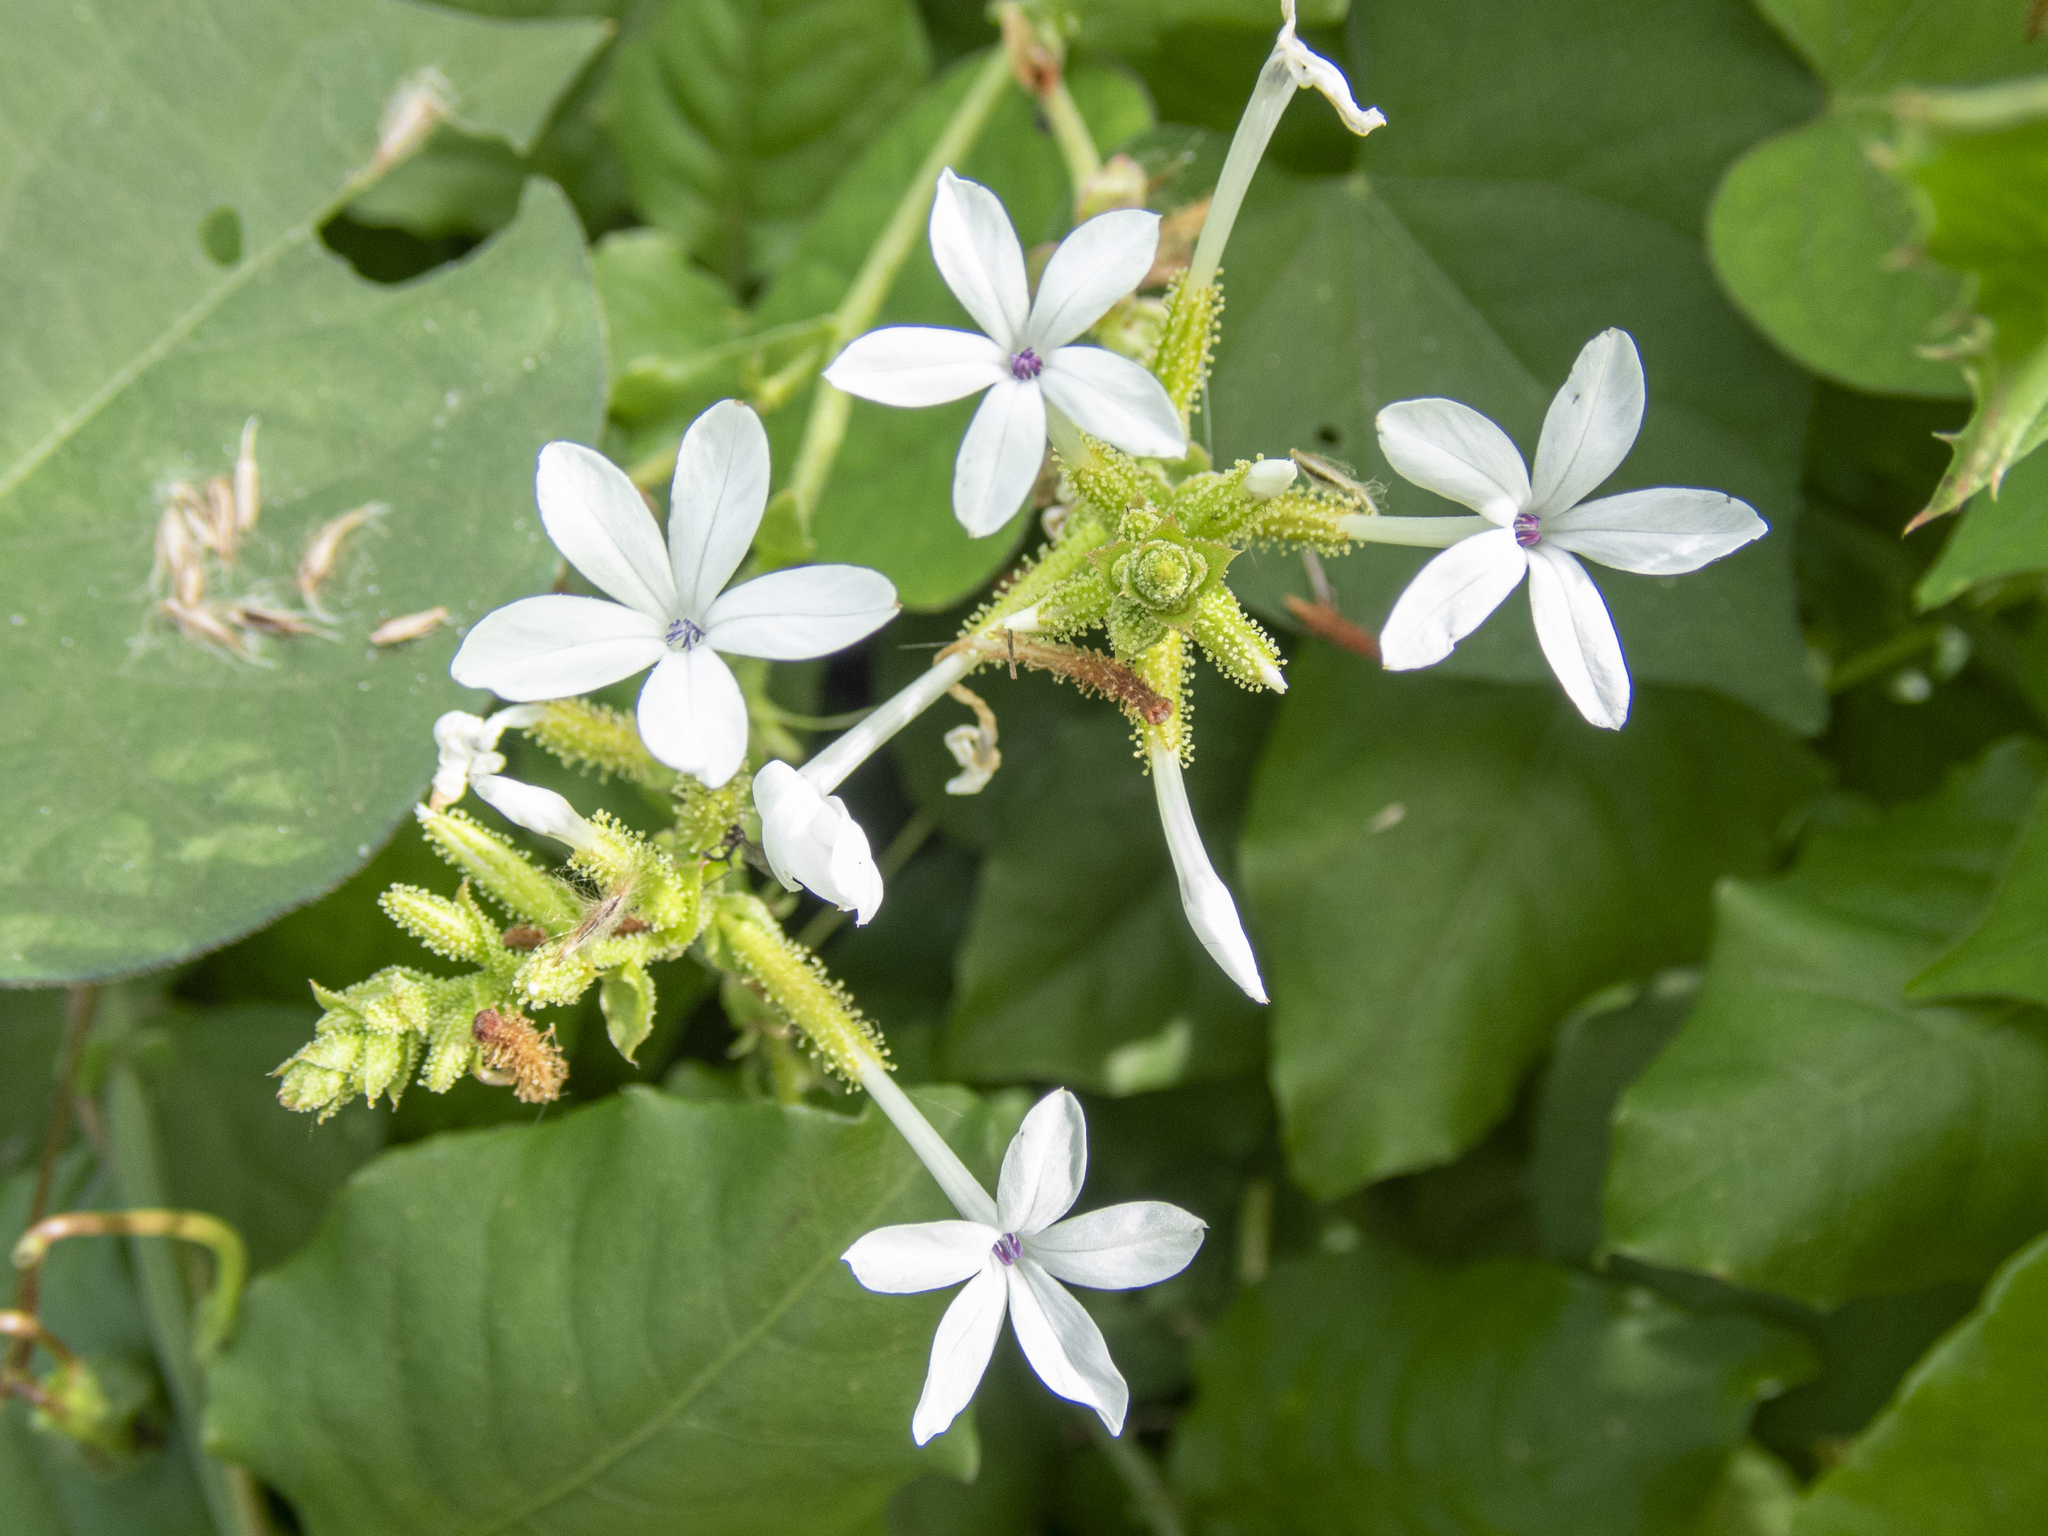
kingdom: Plantae
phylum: Tracheophyta
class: Magnoliopsida
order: Caryophyllales
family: Plumbaginaceae
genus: Plumbago
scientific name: Plumbago zeylanica
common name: Doctorbush
